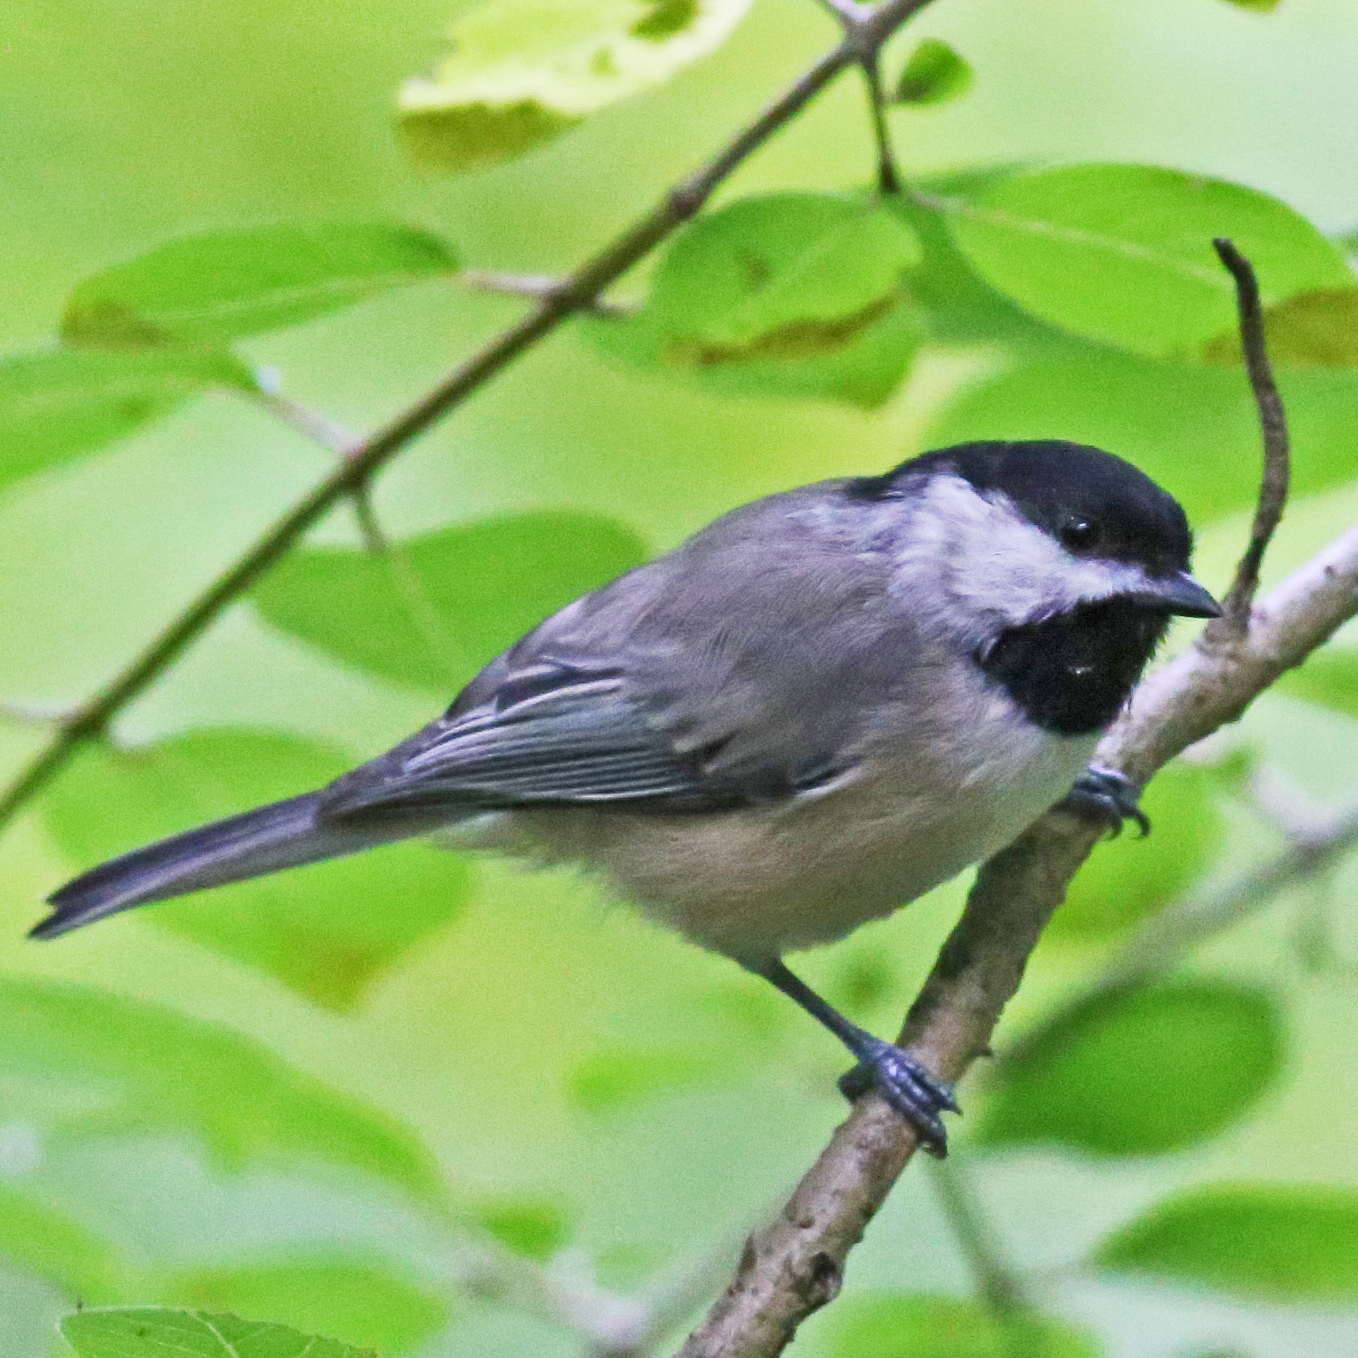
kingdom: Animalia
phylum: Chordata
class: Aves
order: Passeriformes
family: Paridae
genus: Poecile
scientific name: Poecile carolinensis
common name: Carolina chickadee
